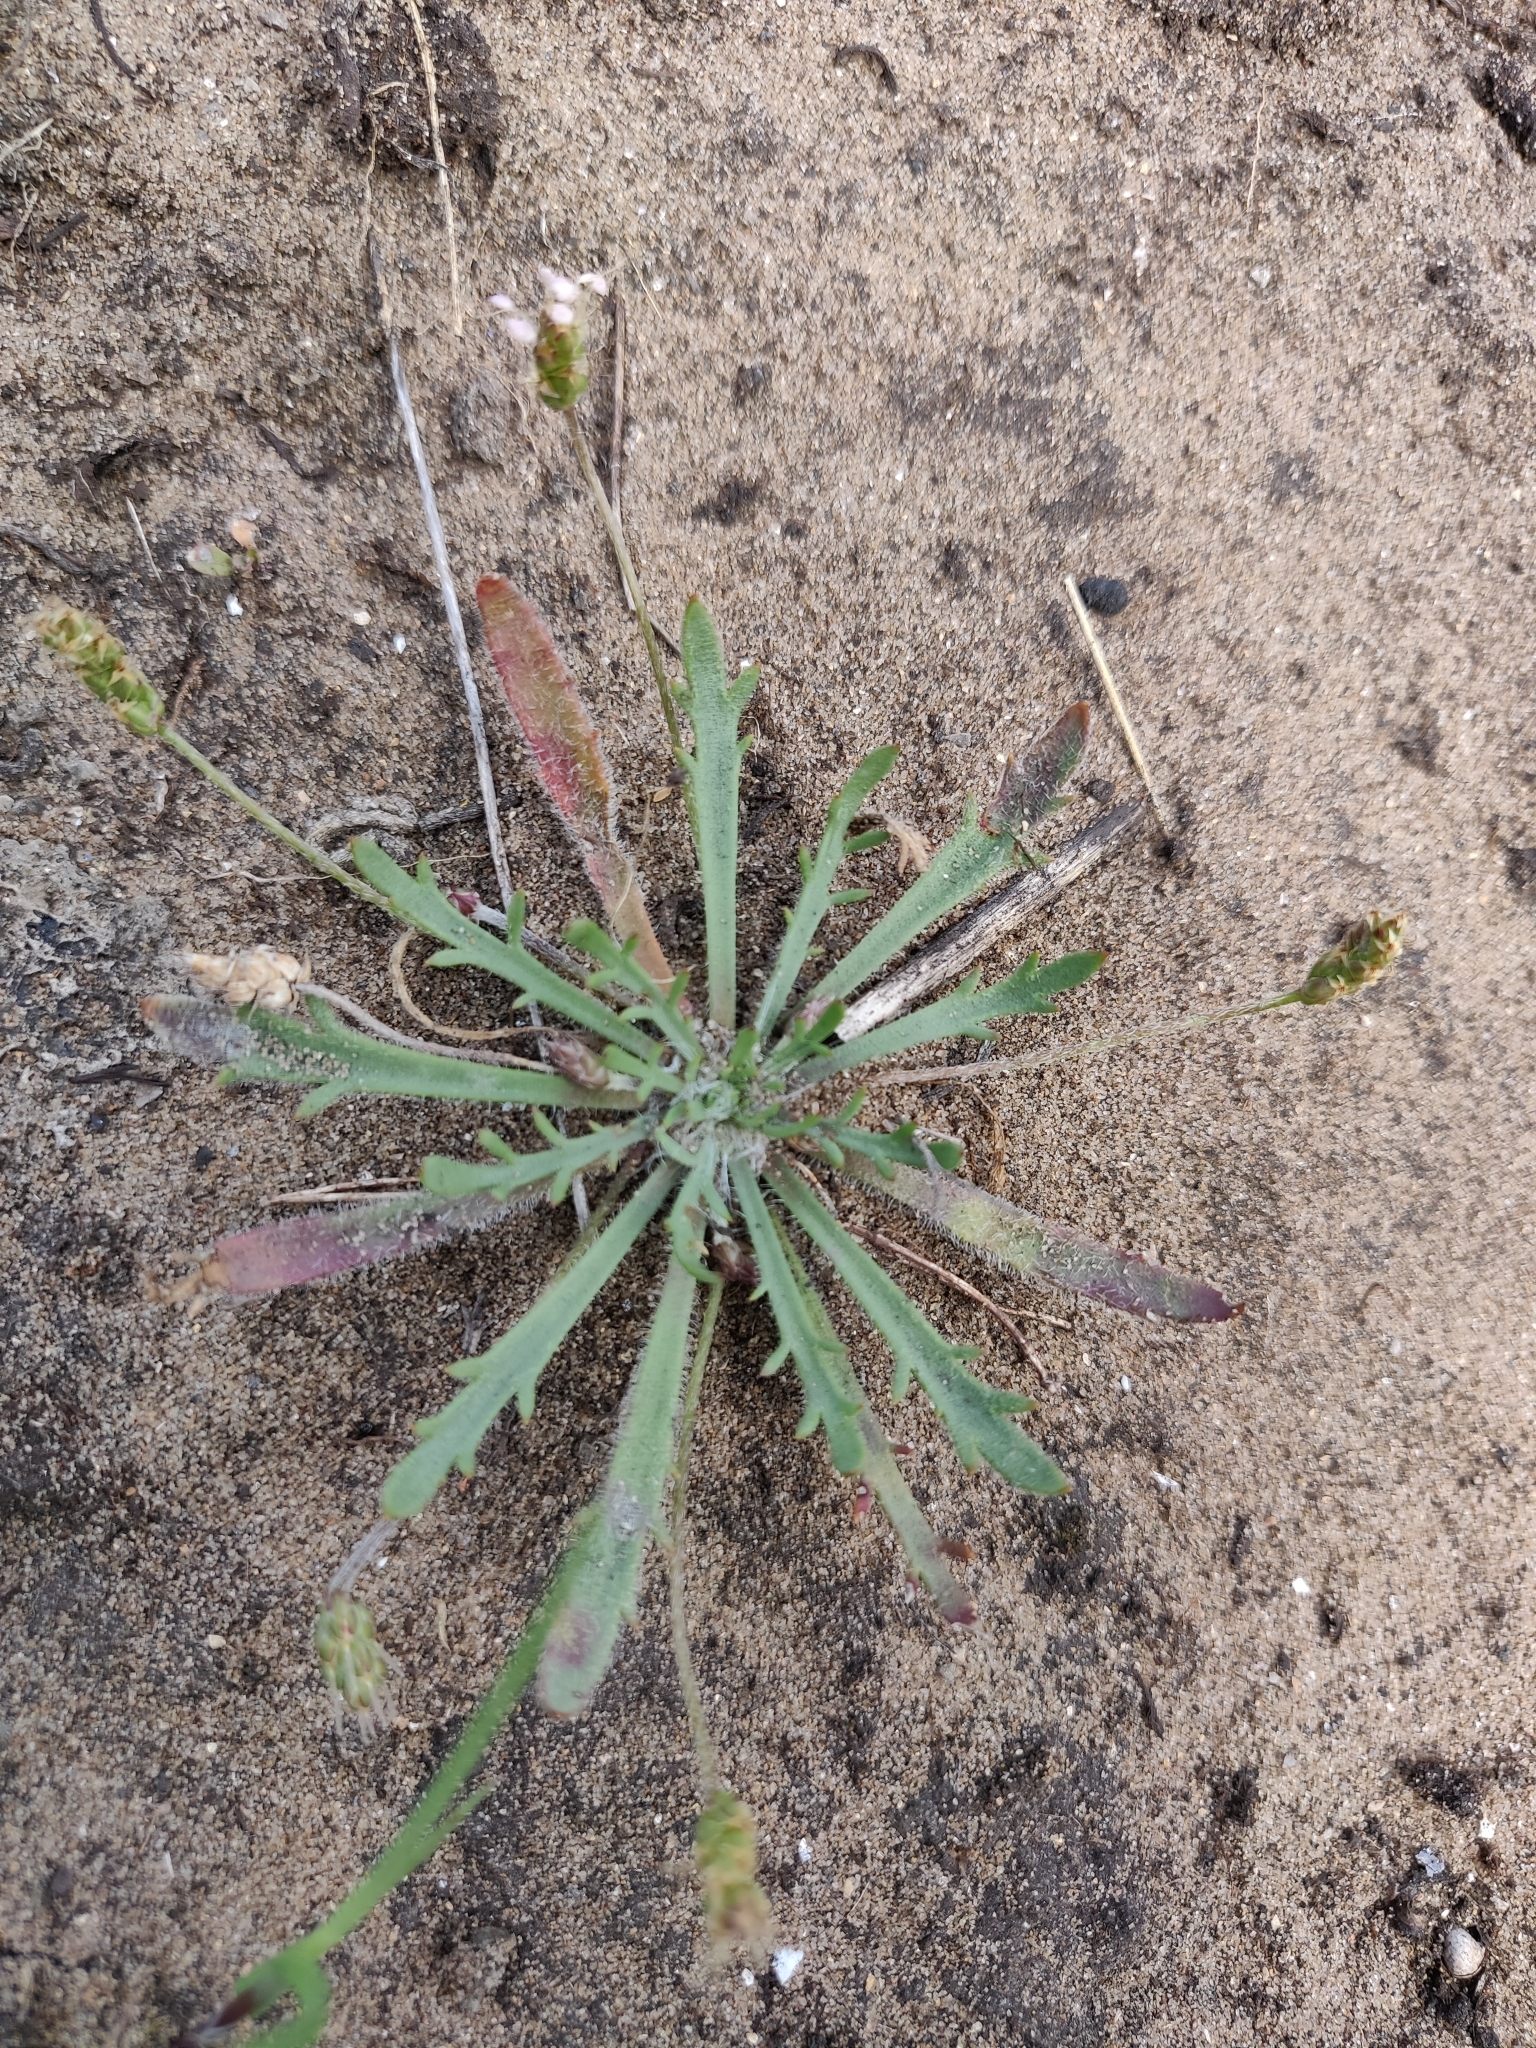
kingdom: Plantae
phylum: Tracheophyta
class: Magnoliopsida
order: Lamiales
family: Plantaginaceae
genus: Plantago
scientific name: Plantago coronopus
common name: Buck's-horn plantain
